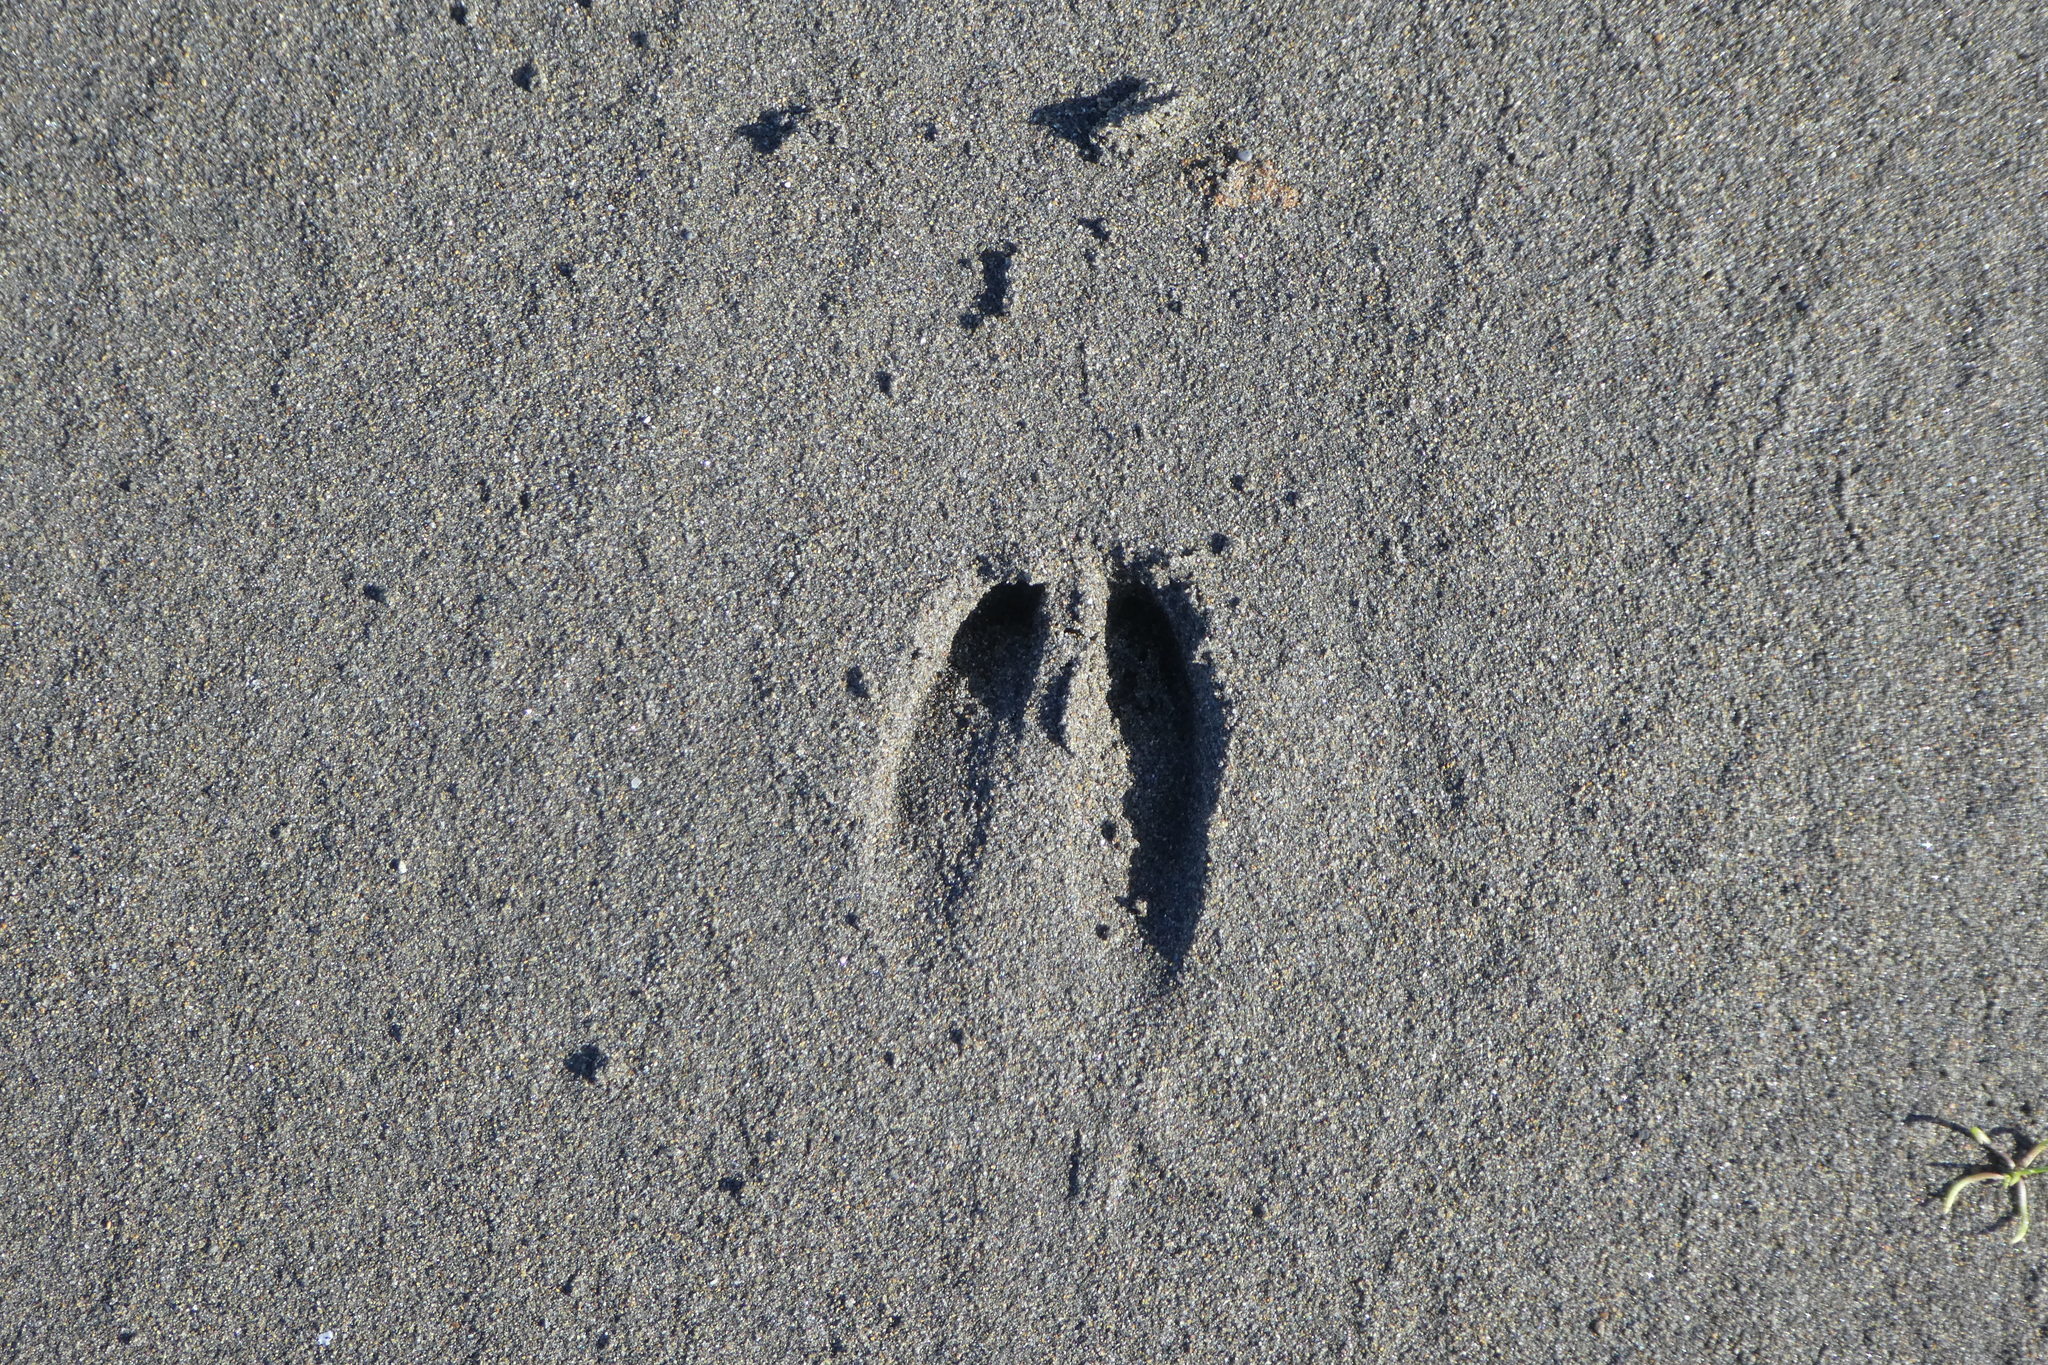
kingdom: Animalia
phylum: Chordata
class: Mammalia
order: Artiodactyla
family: Cervidae
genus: Odocoileus
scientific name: Odocoileus hemionus
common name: Mule deer
